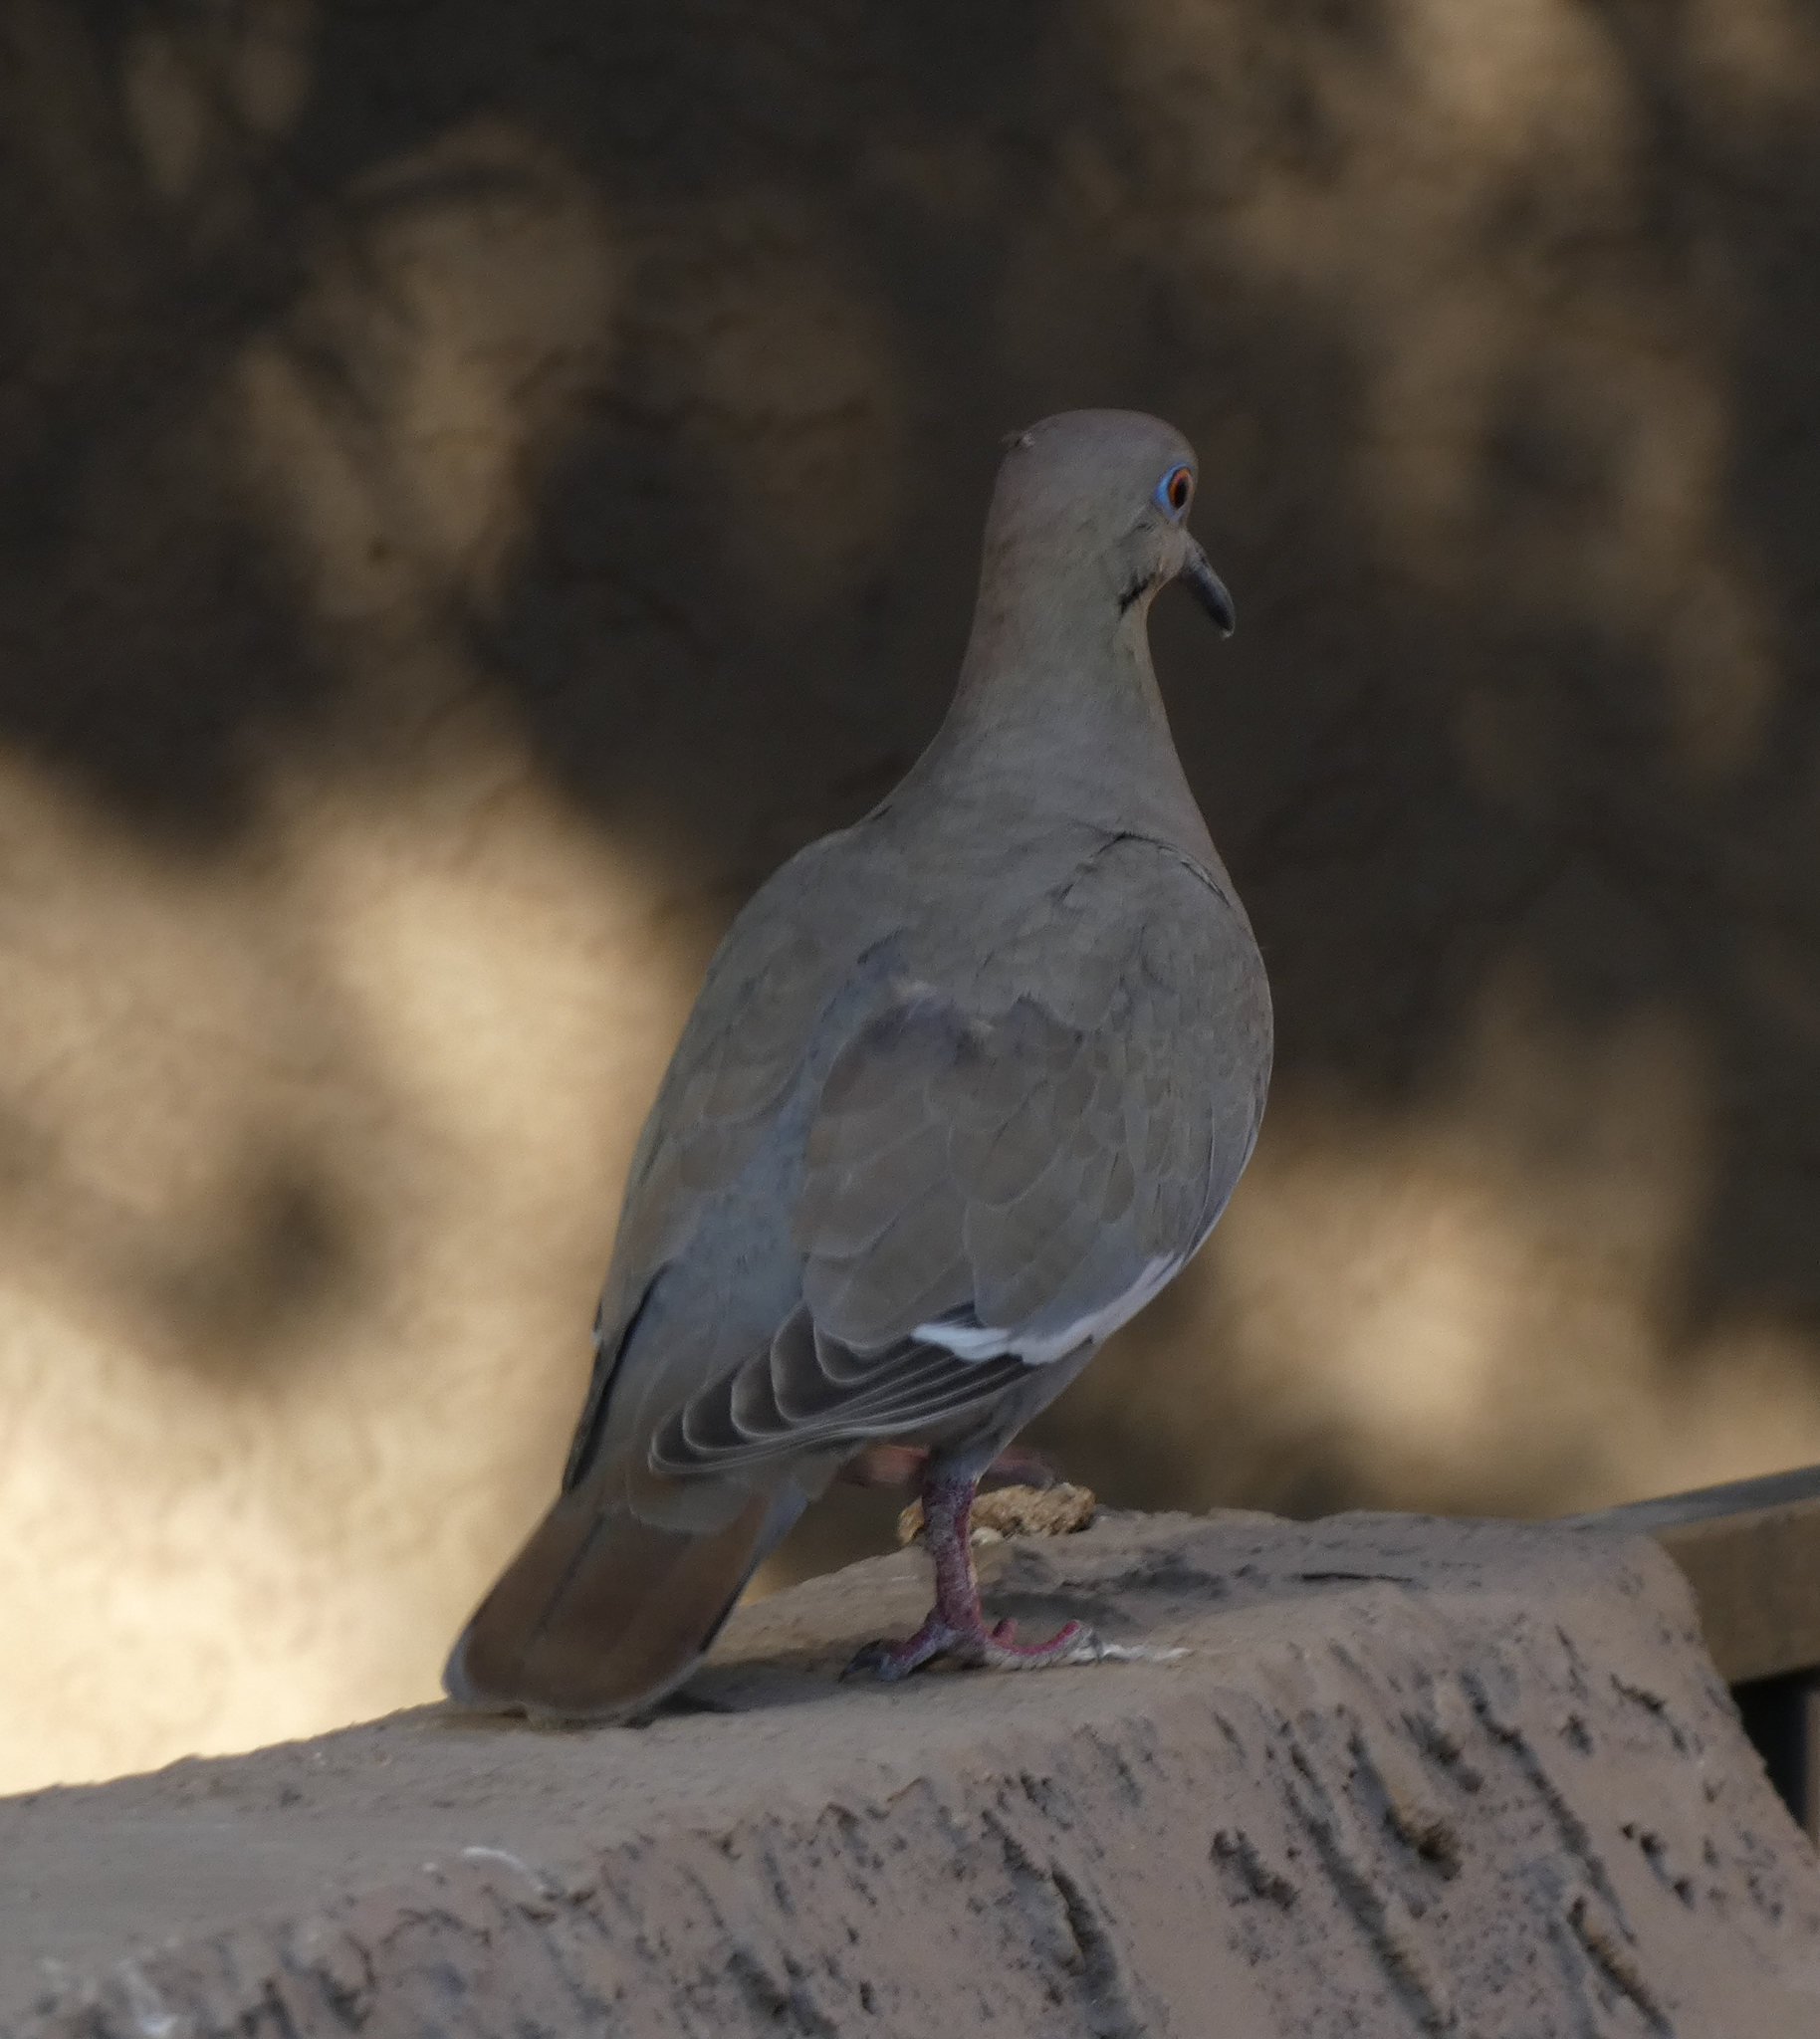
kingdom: Animalia
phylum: Chordata
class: Aves
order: Columbiformes
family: Columbidae
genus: Zenaida
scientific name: Zenaida asiatica
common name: White-winged dove
